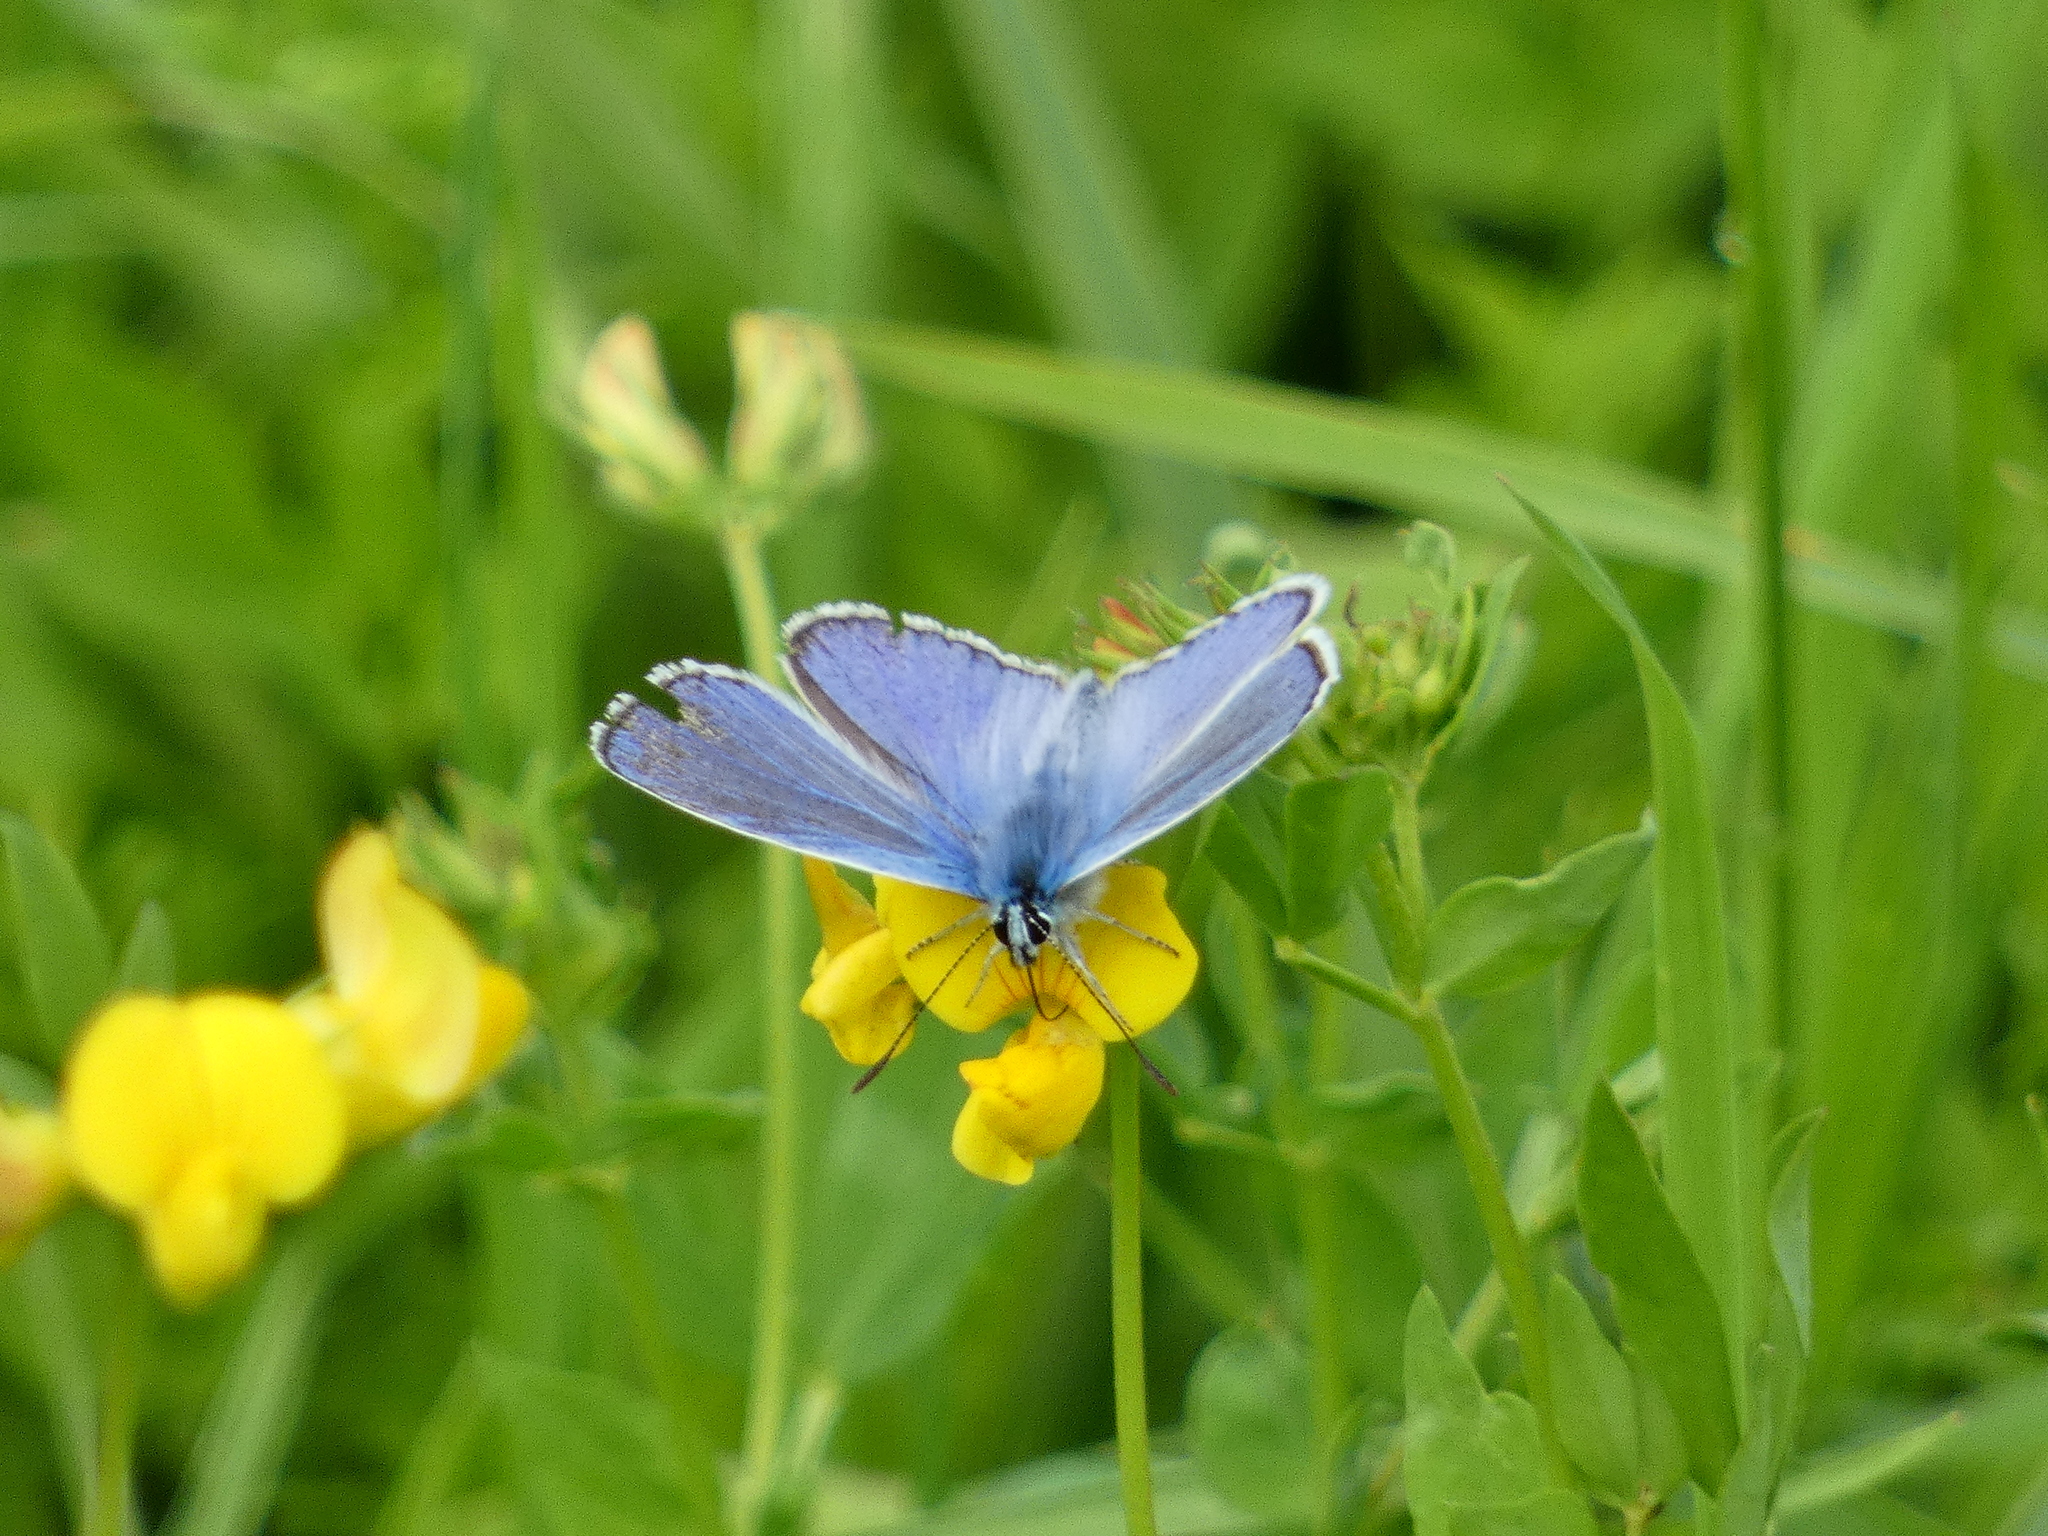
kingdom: Animalia
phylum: Arthropoda
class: Insecta
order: Lepidoptera
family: Lycaenidae
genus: Polyommatus
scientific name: Polyommatus icarus
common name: Common blue
